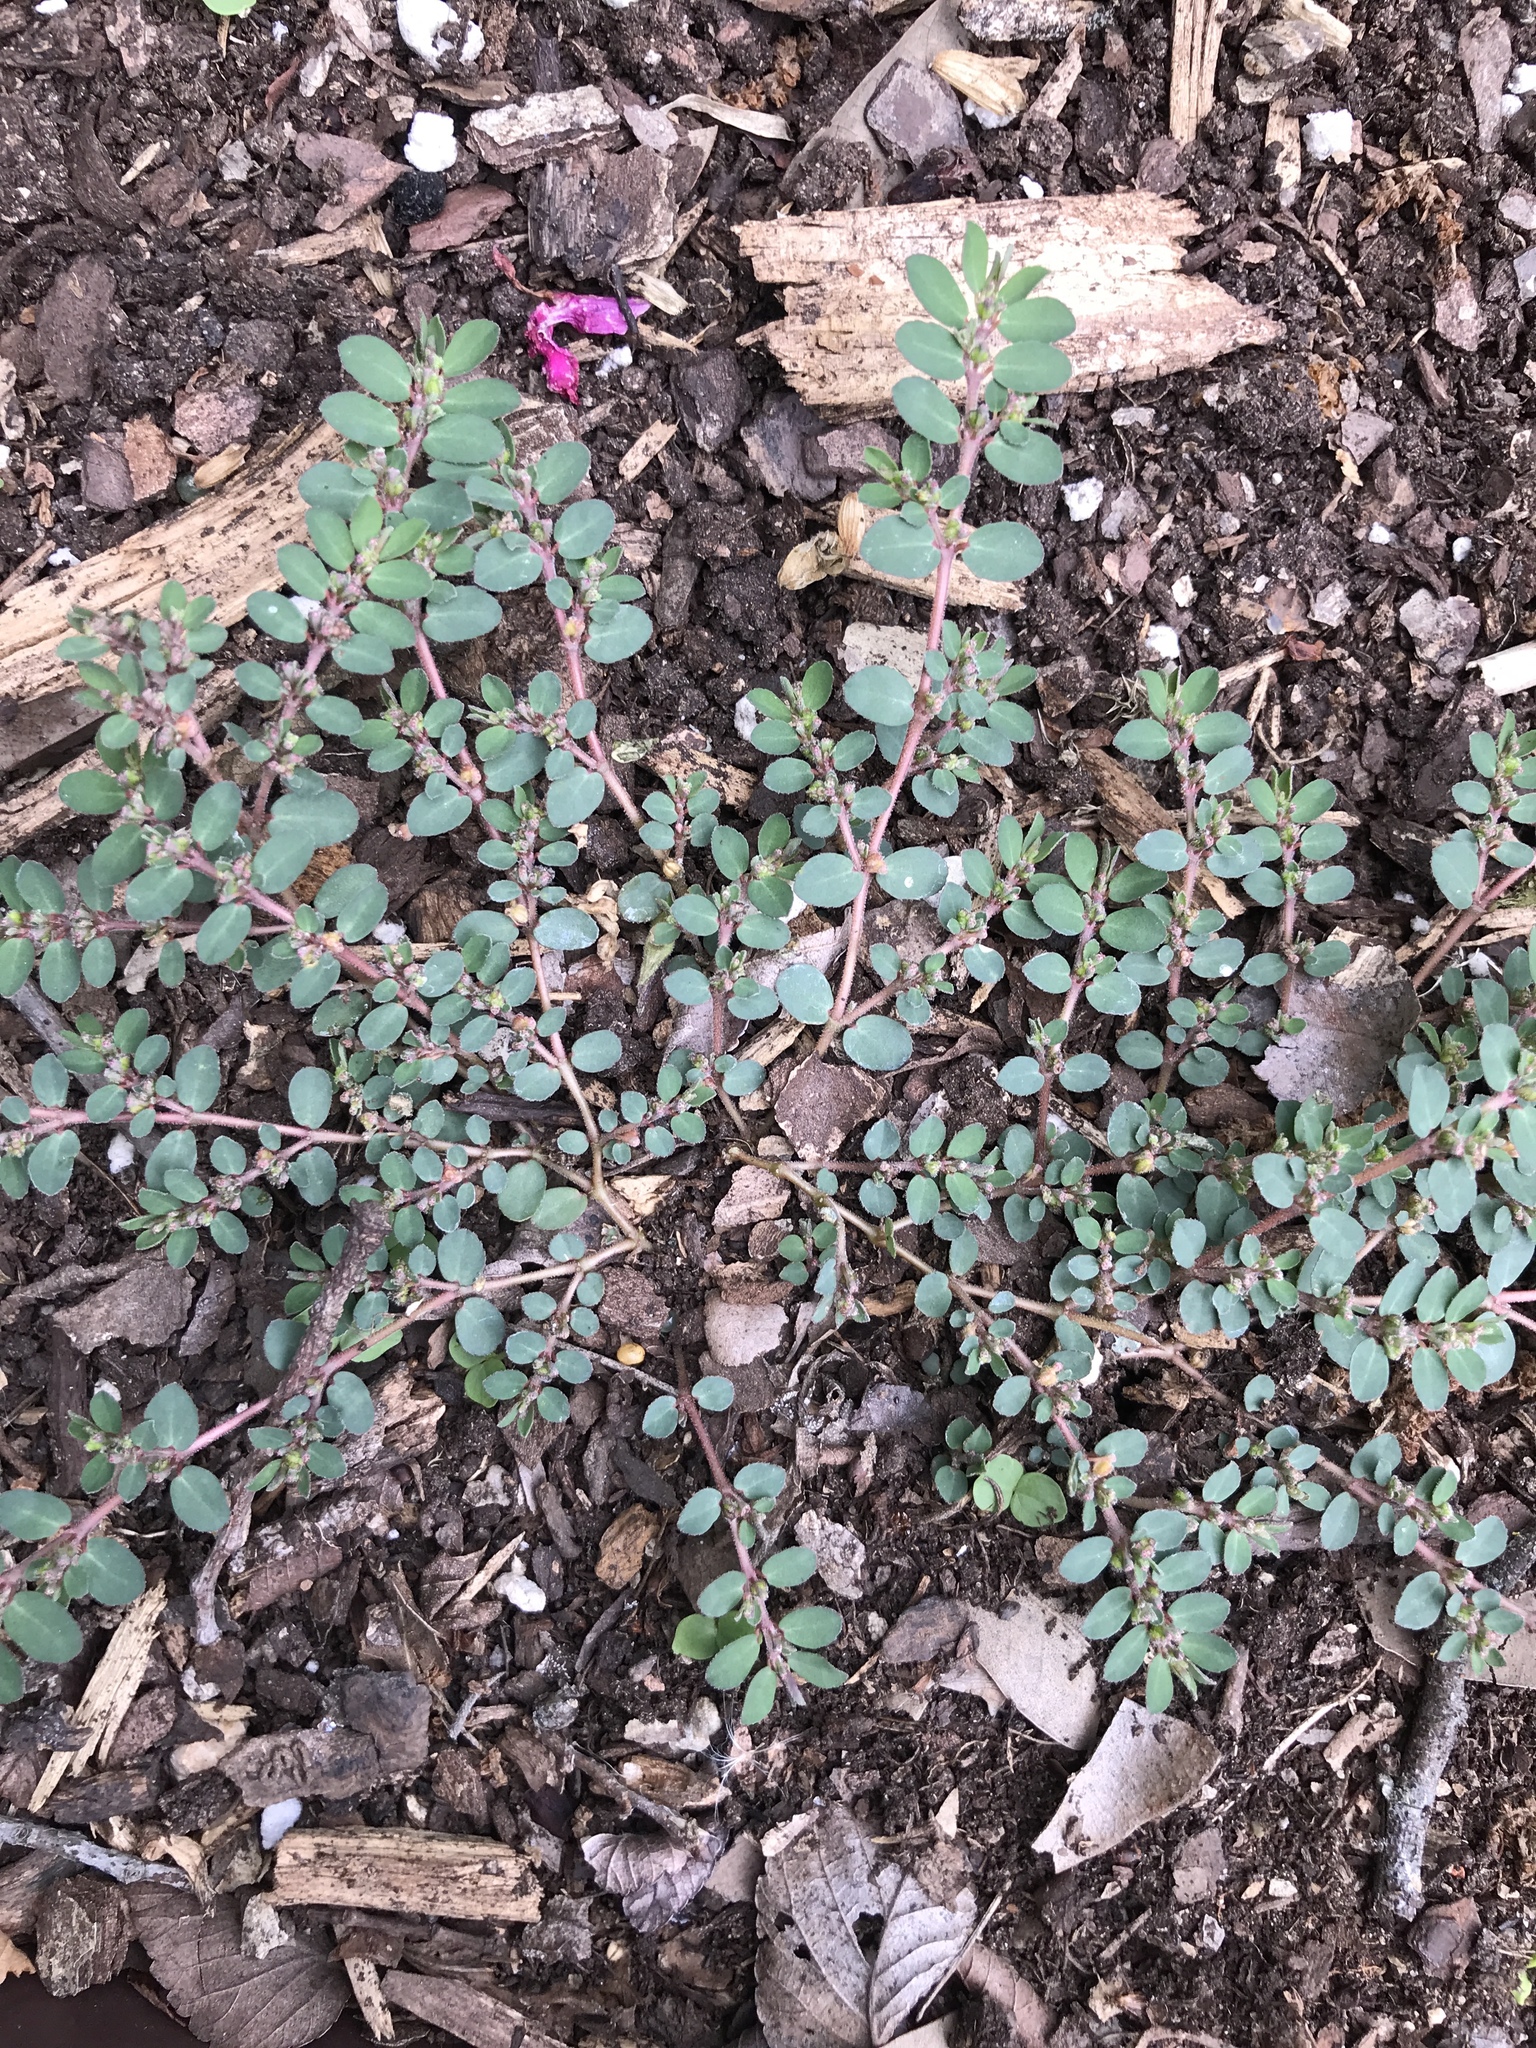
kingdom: Plantae
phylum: Tracheophyta
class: Magnoliopsida
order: Malpighiales
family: Euphorbiaceae
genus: Euphorbia
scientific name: Euphorbia prostrata
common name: Prostrate sandmat
